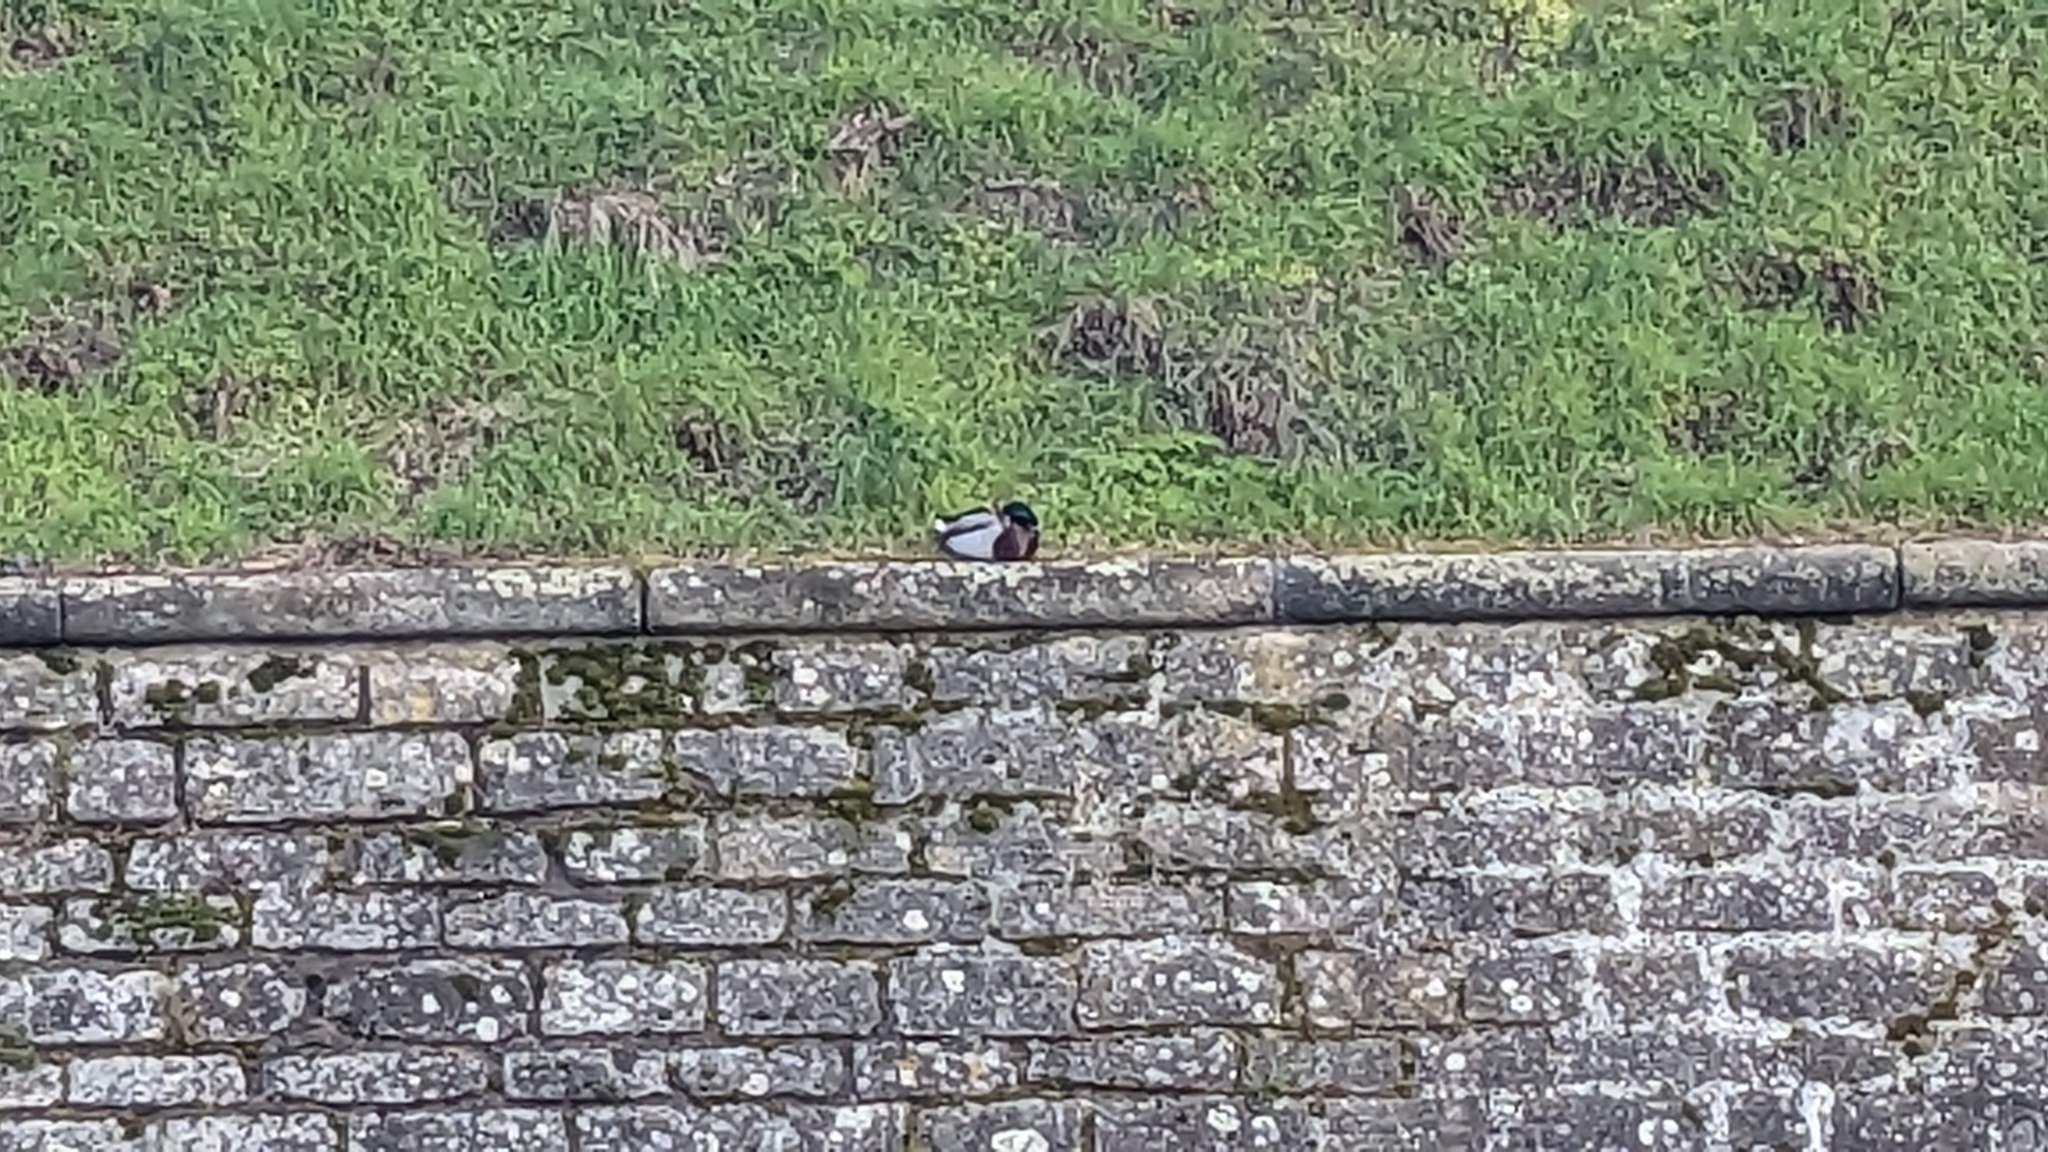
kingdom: Animalia
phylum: Chordata
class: Aves
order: Anseriformes
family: Anatidae
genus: Anas
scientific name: Anas platyrhynchos
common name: Mallard
